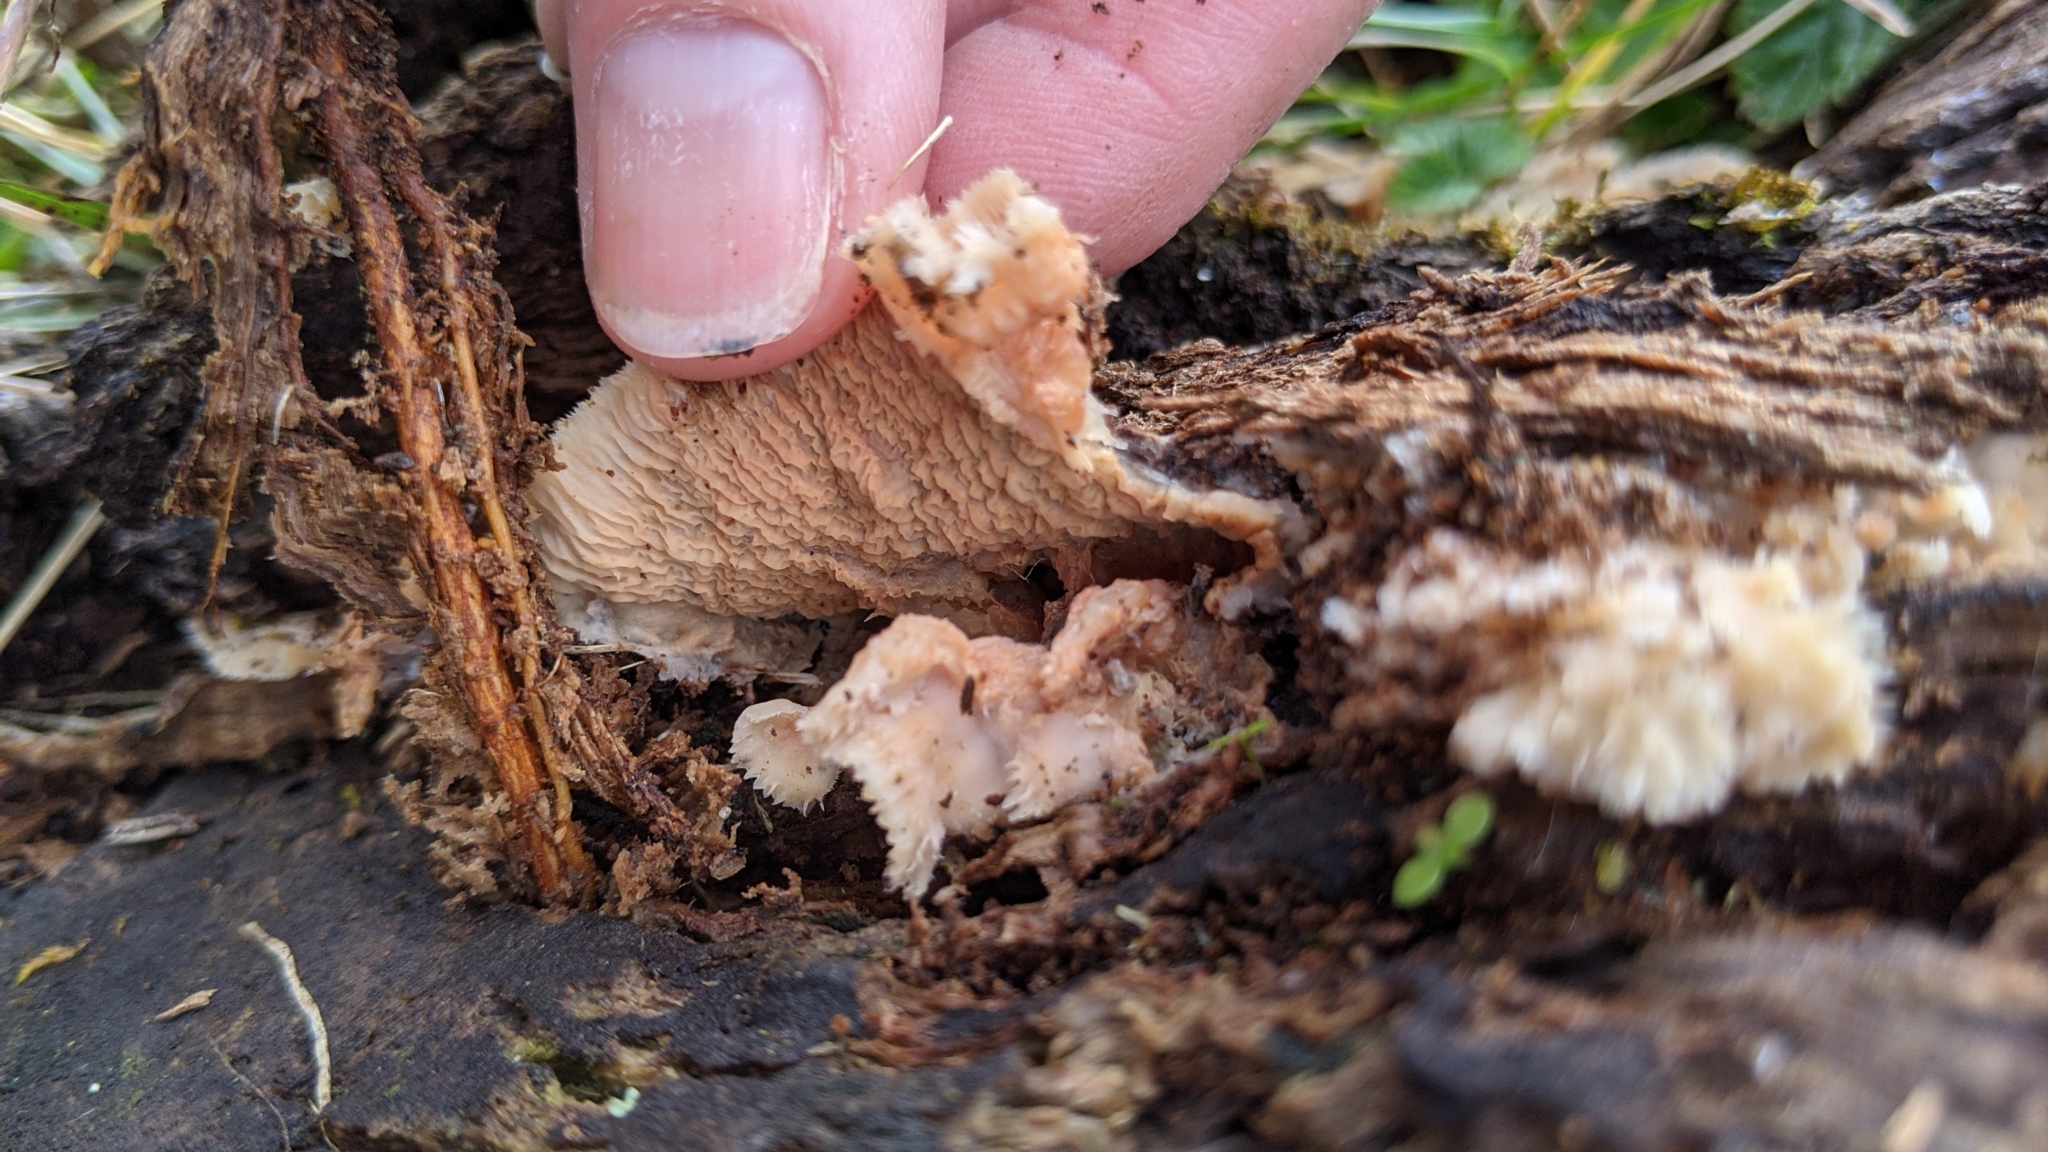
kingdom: Fungi
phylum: Basidiomycota
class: Agaricomycetes
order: Polyporales
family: Meruliaceae
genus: Phlebia
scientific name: Phlebia tremellosa
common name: Jelly rot
